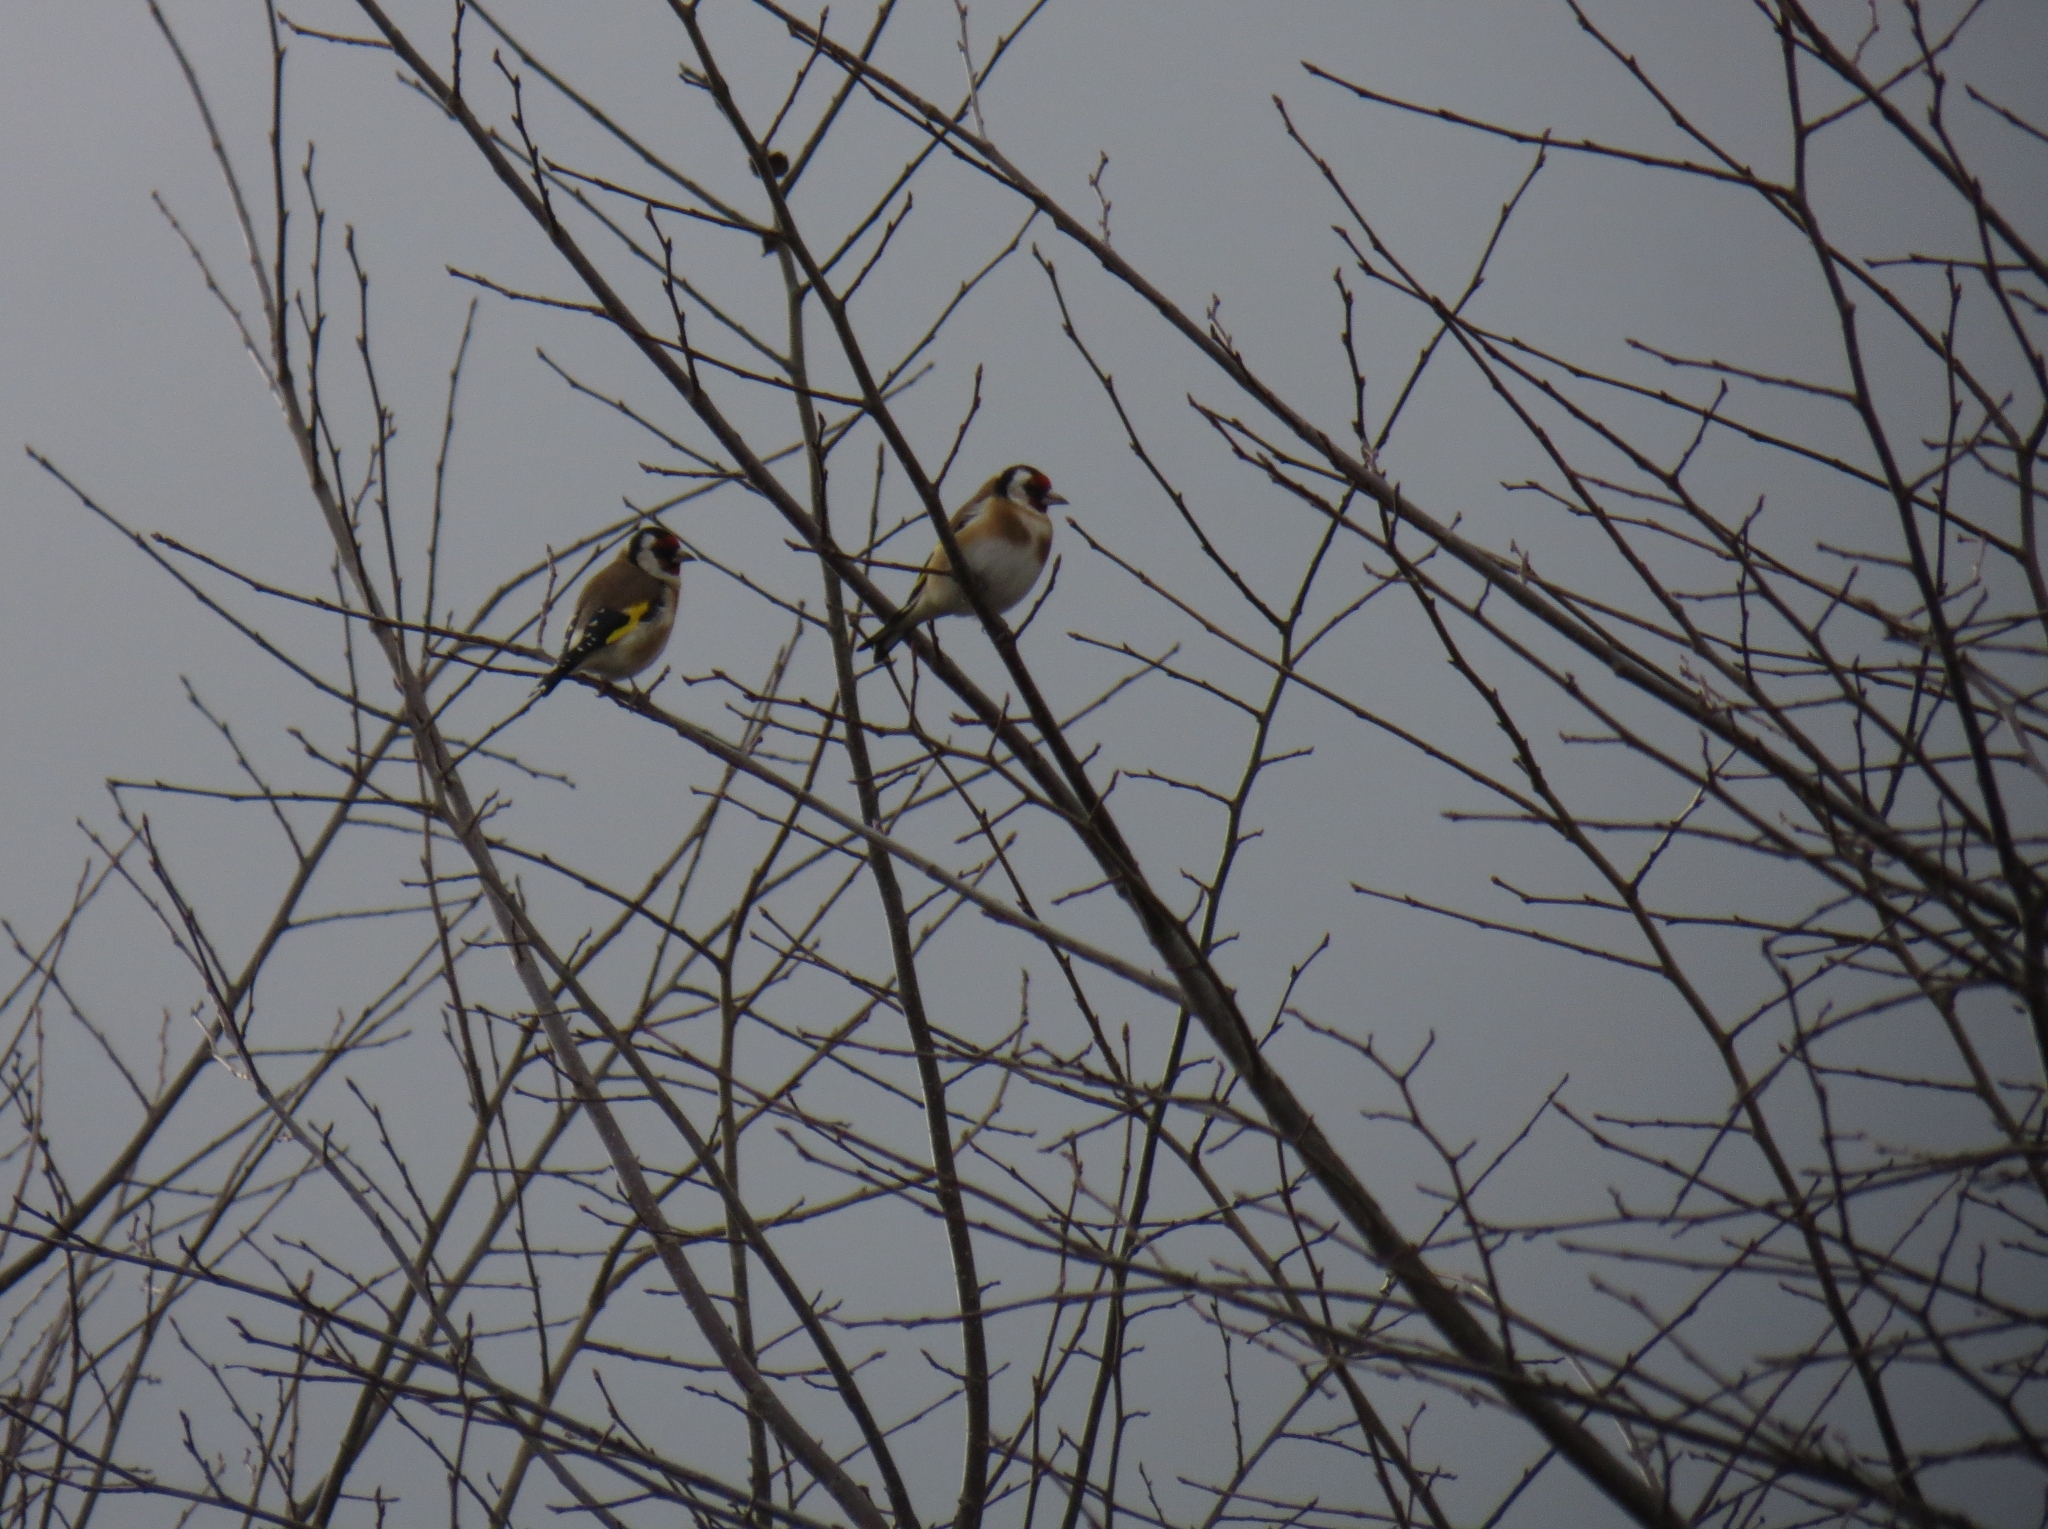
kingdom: Animalia
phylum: Chordata
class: Aves
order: Passeriformes
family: Fringillidae
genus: Carduelis
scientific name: Carduelis carduelis
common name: European goldfinch
